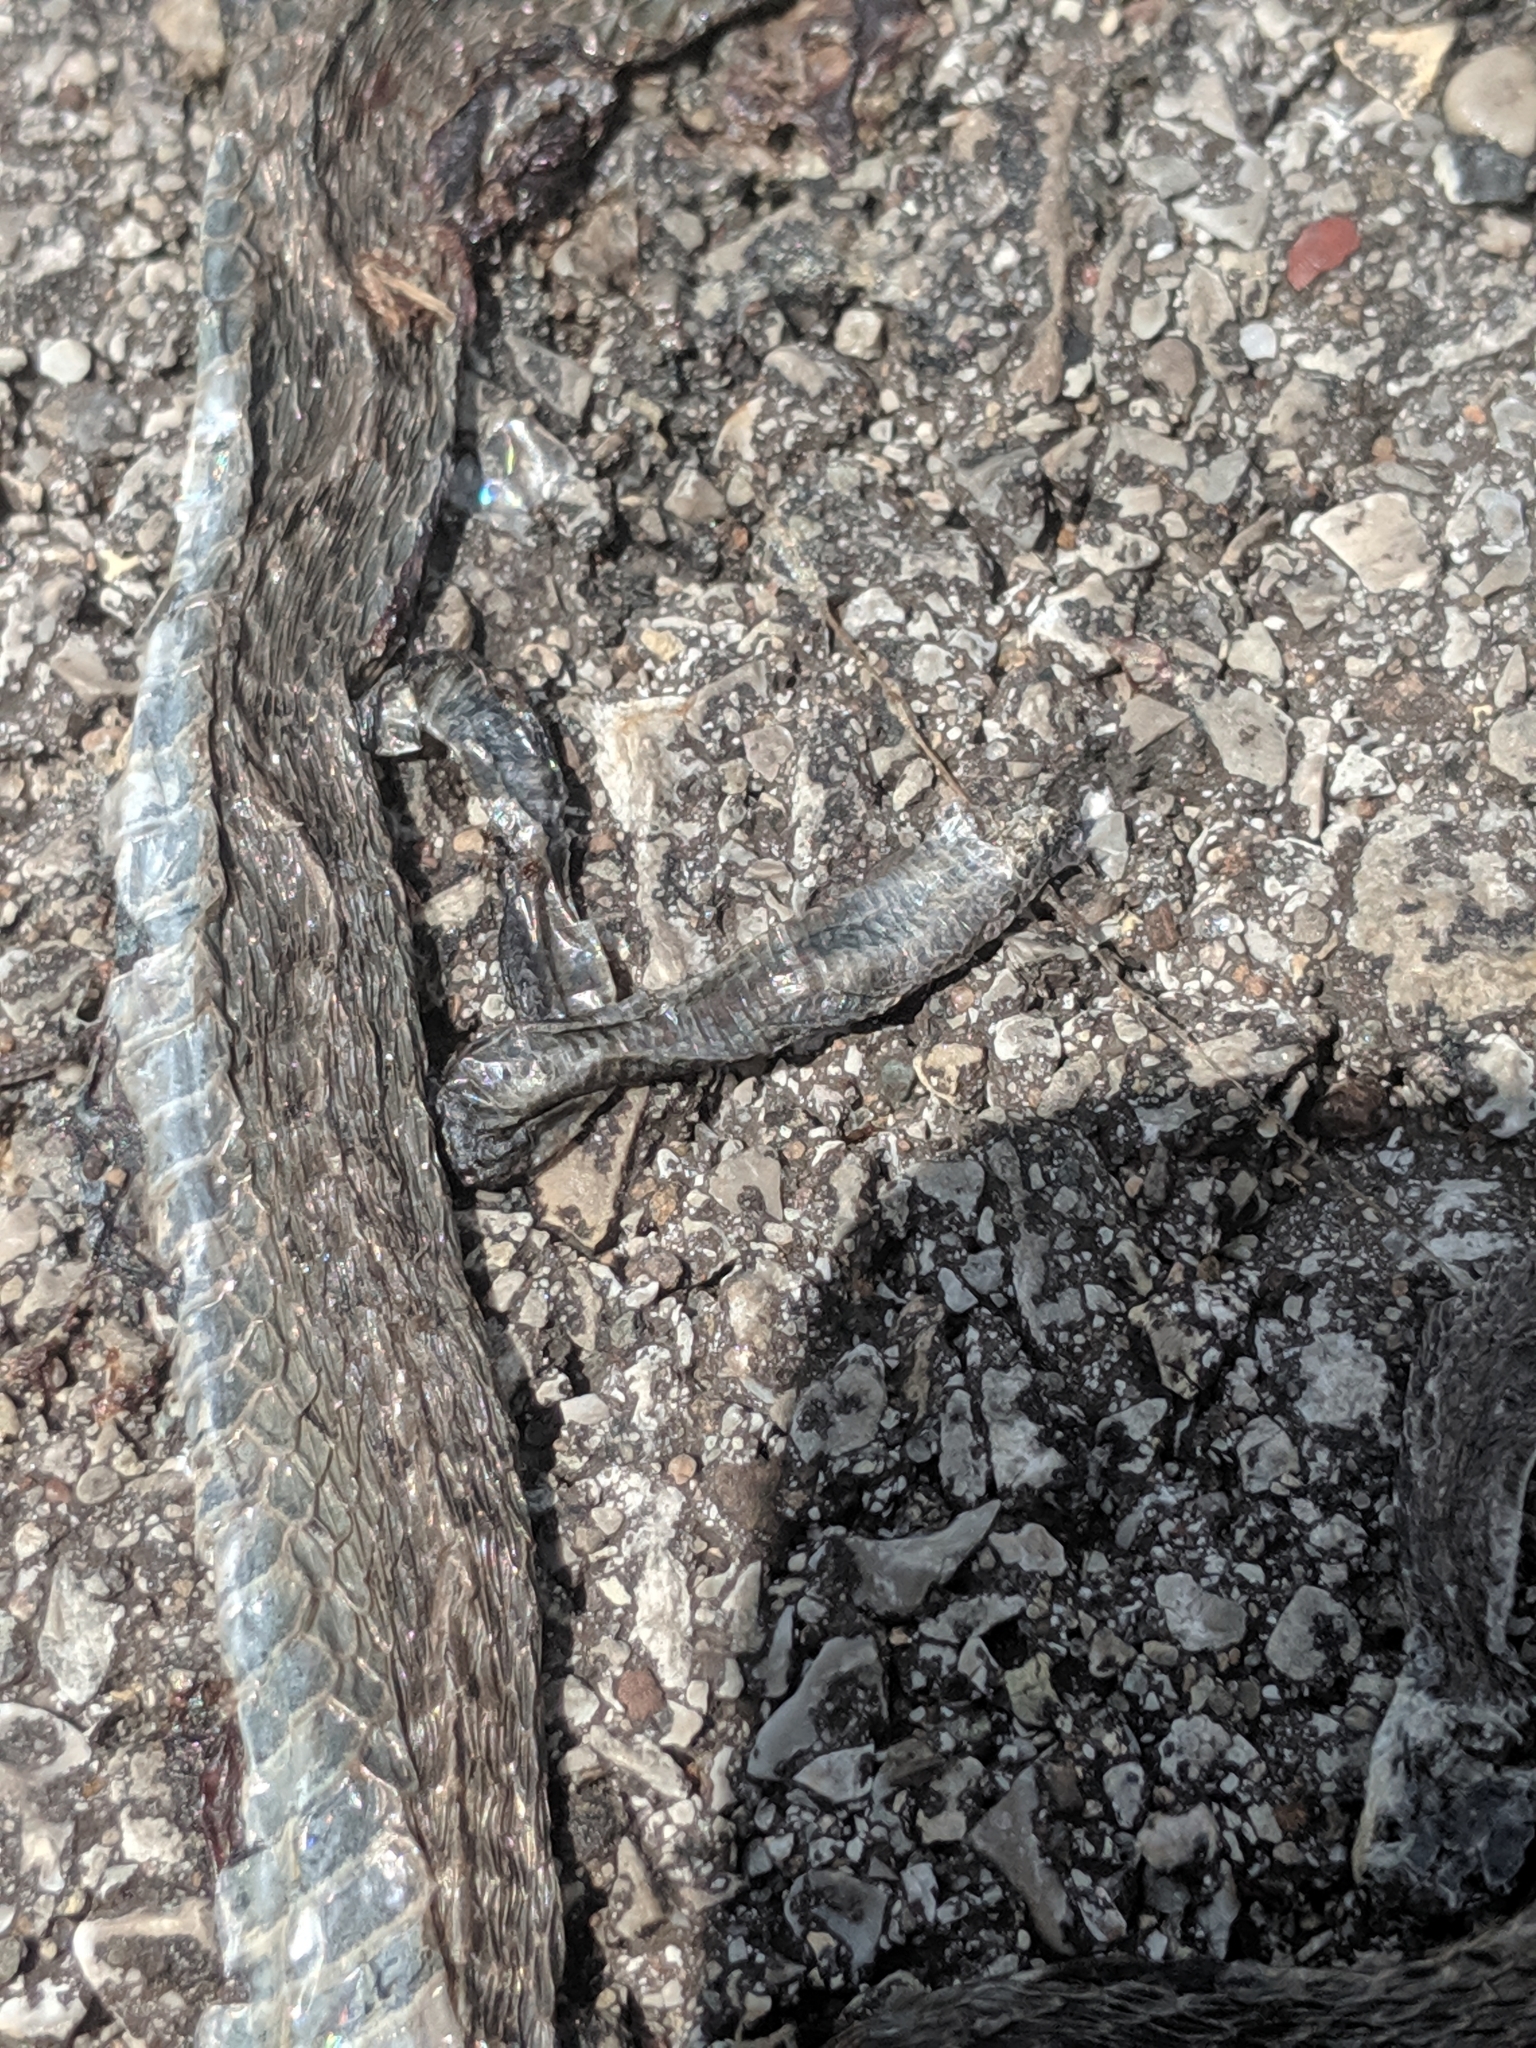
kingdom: Animalia
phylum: Chordata
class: Squamata
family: Colubridae
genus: Storeria
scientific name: Storeria dekayi
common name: (dekay’s) brown snake
